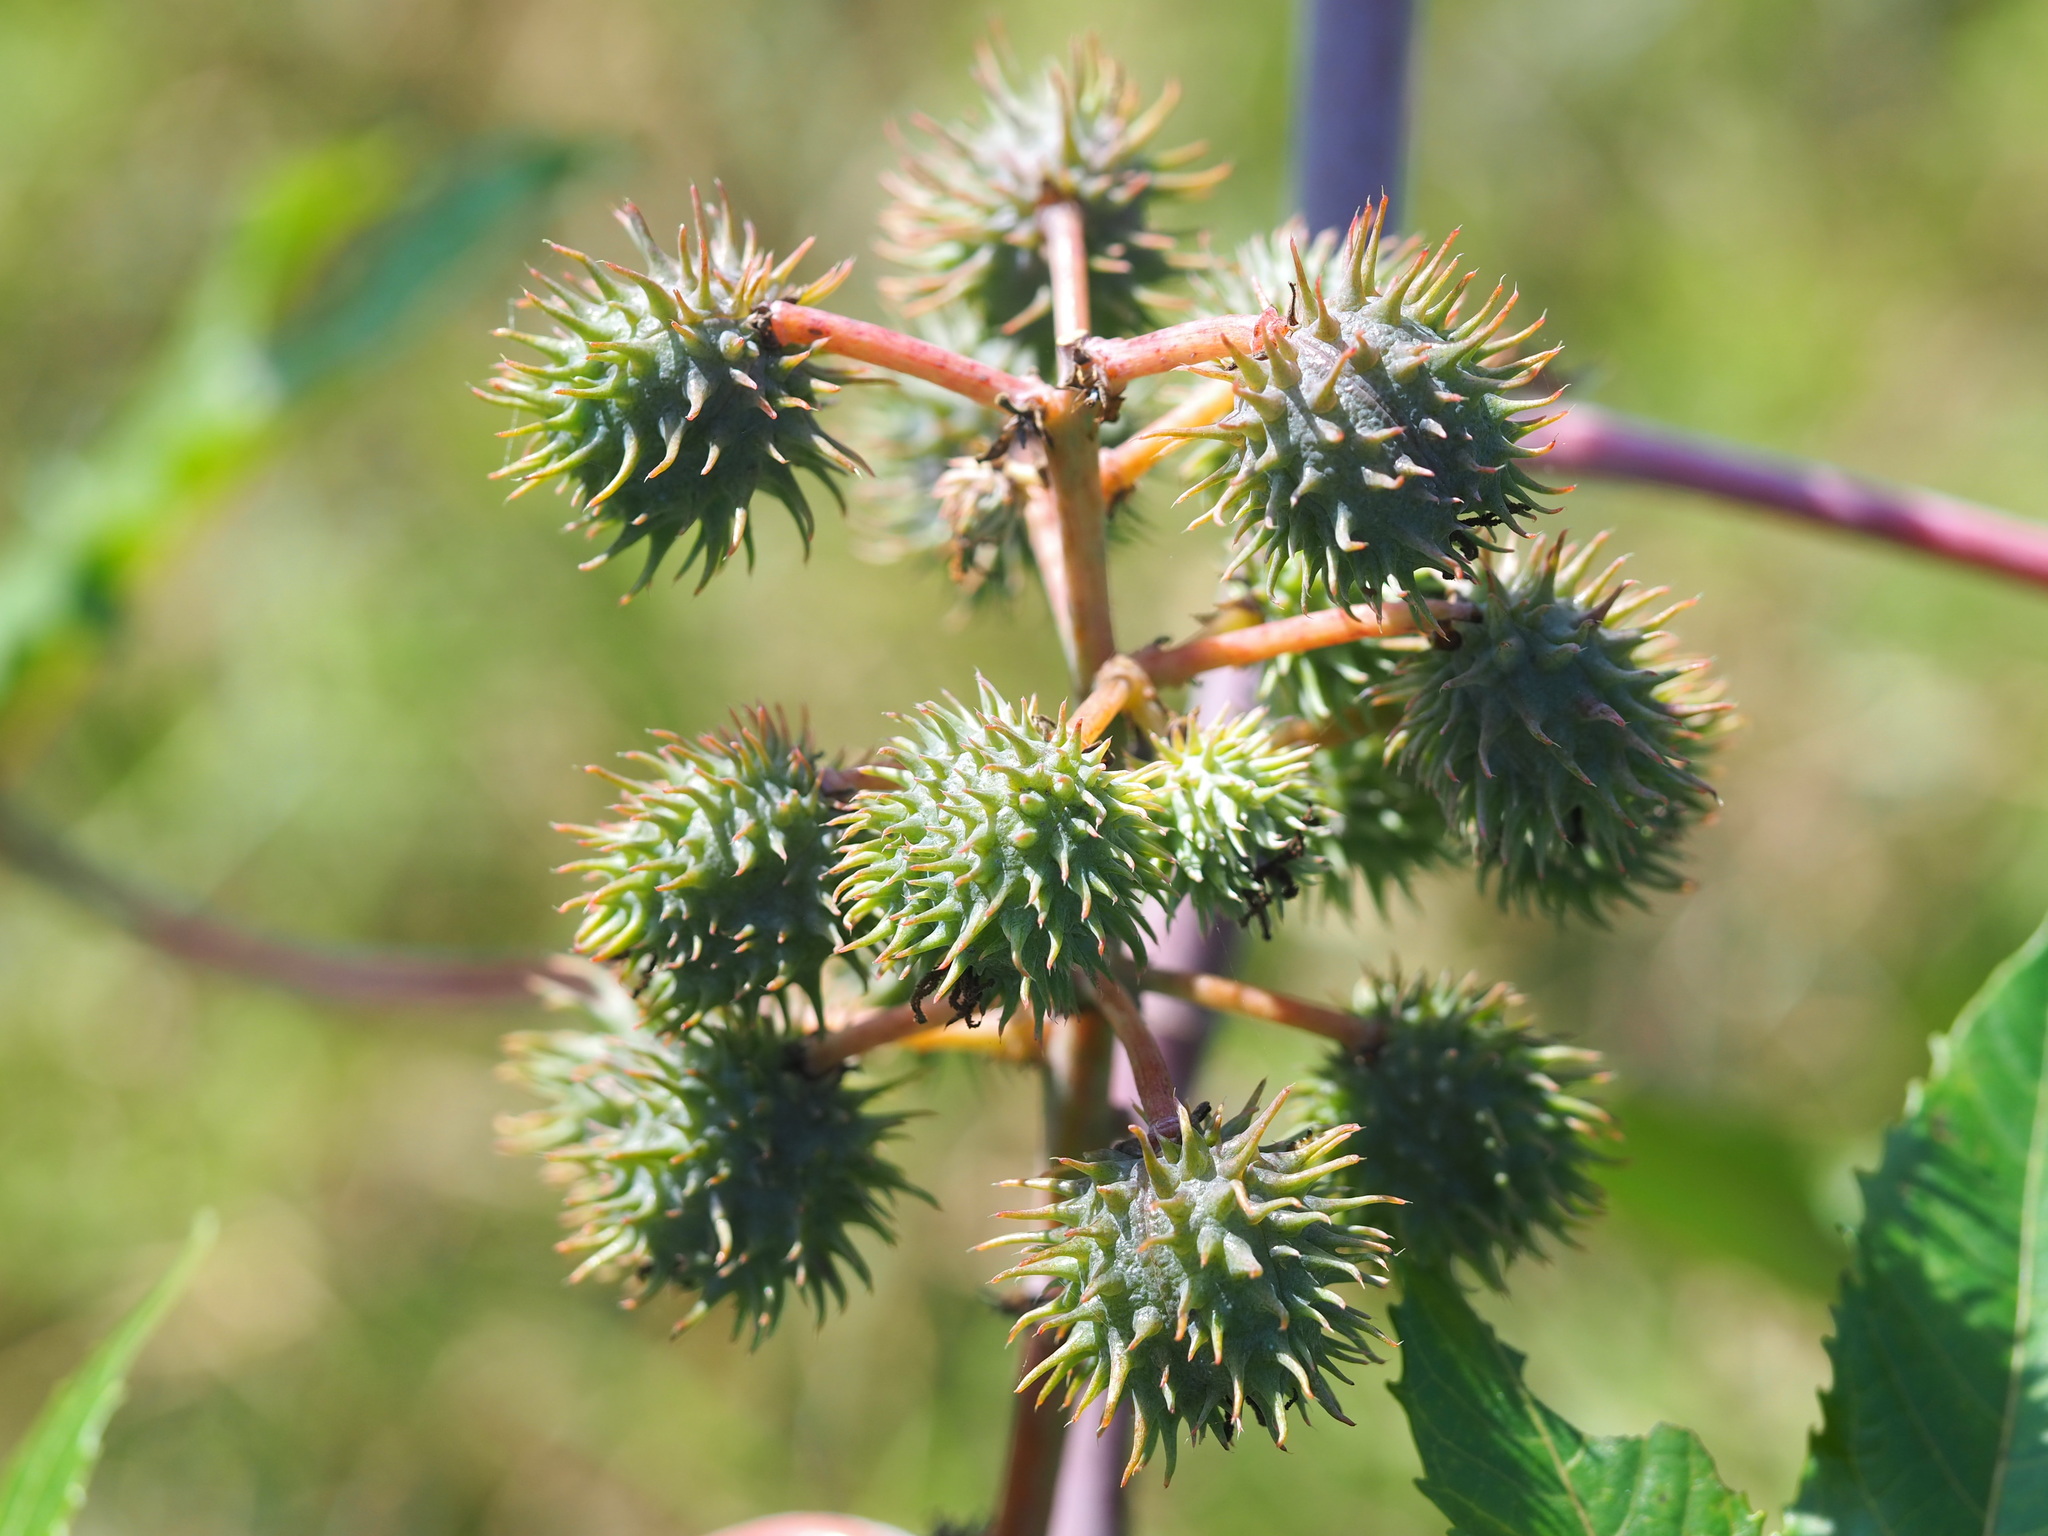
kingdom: Plantae
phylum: Tracheophyta
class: Magnoliopsida
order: Malpighiales
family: Euphorbiaceae
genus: Ricinus
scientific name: Ricinus communis
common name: Castor-oil-plant
